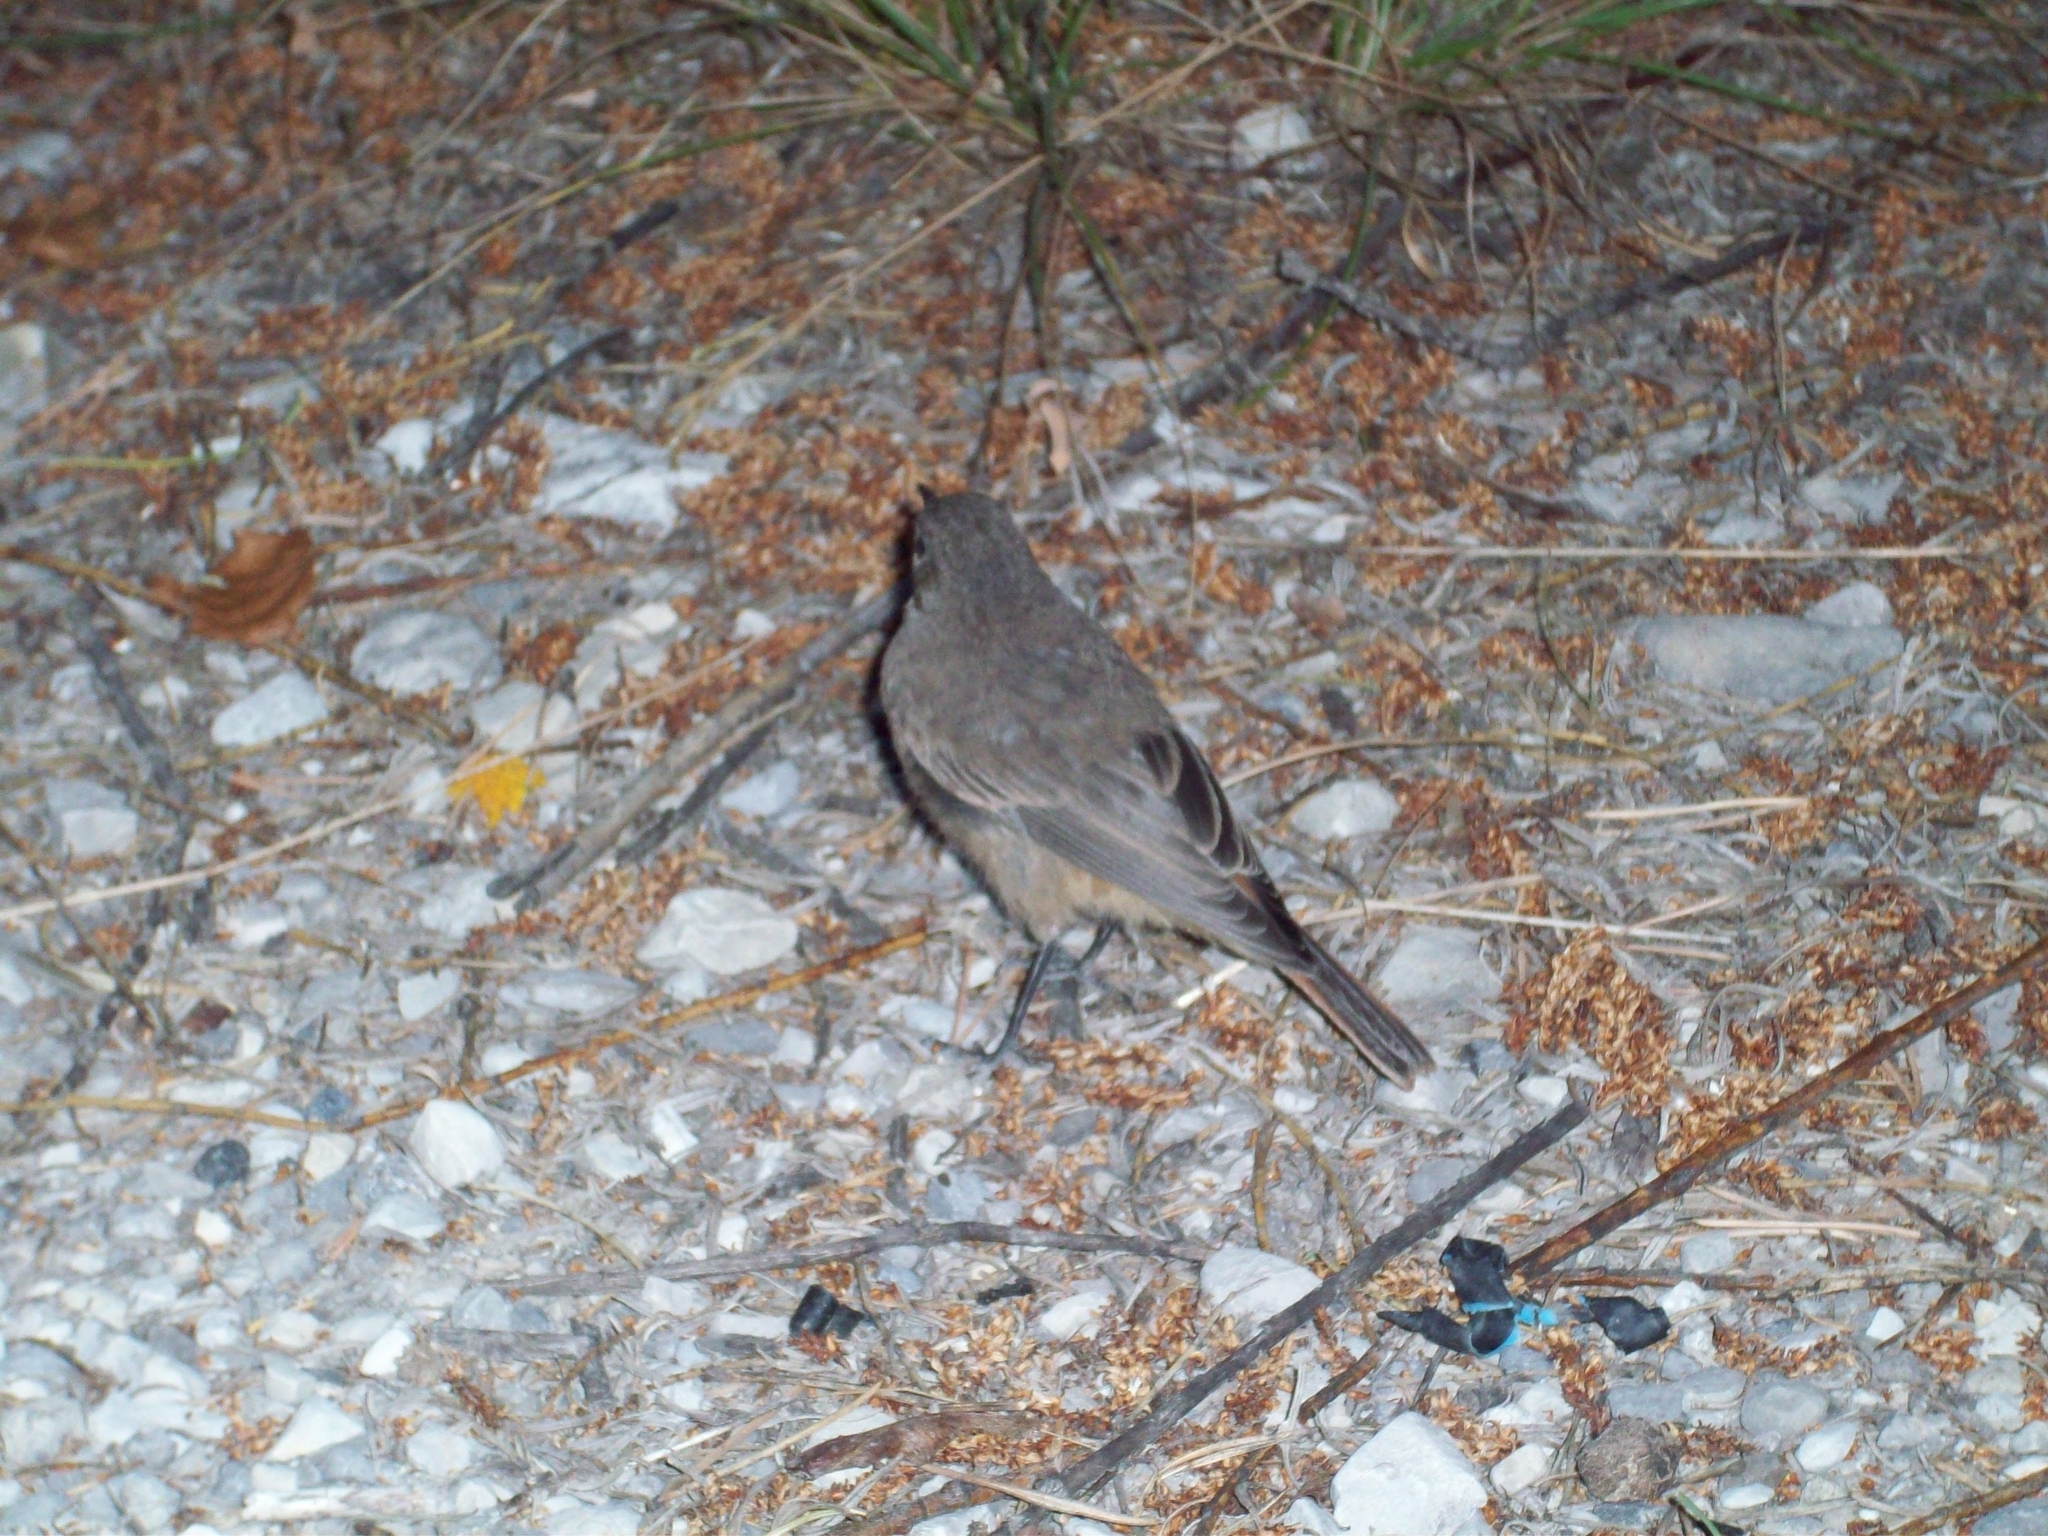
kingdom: Animalia
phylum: Chordata
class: Aves
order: Passeriformes
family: Muscicapidae
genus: Phoenicurus
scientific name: Phoenicurus ochruros
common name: Black redstart
